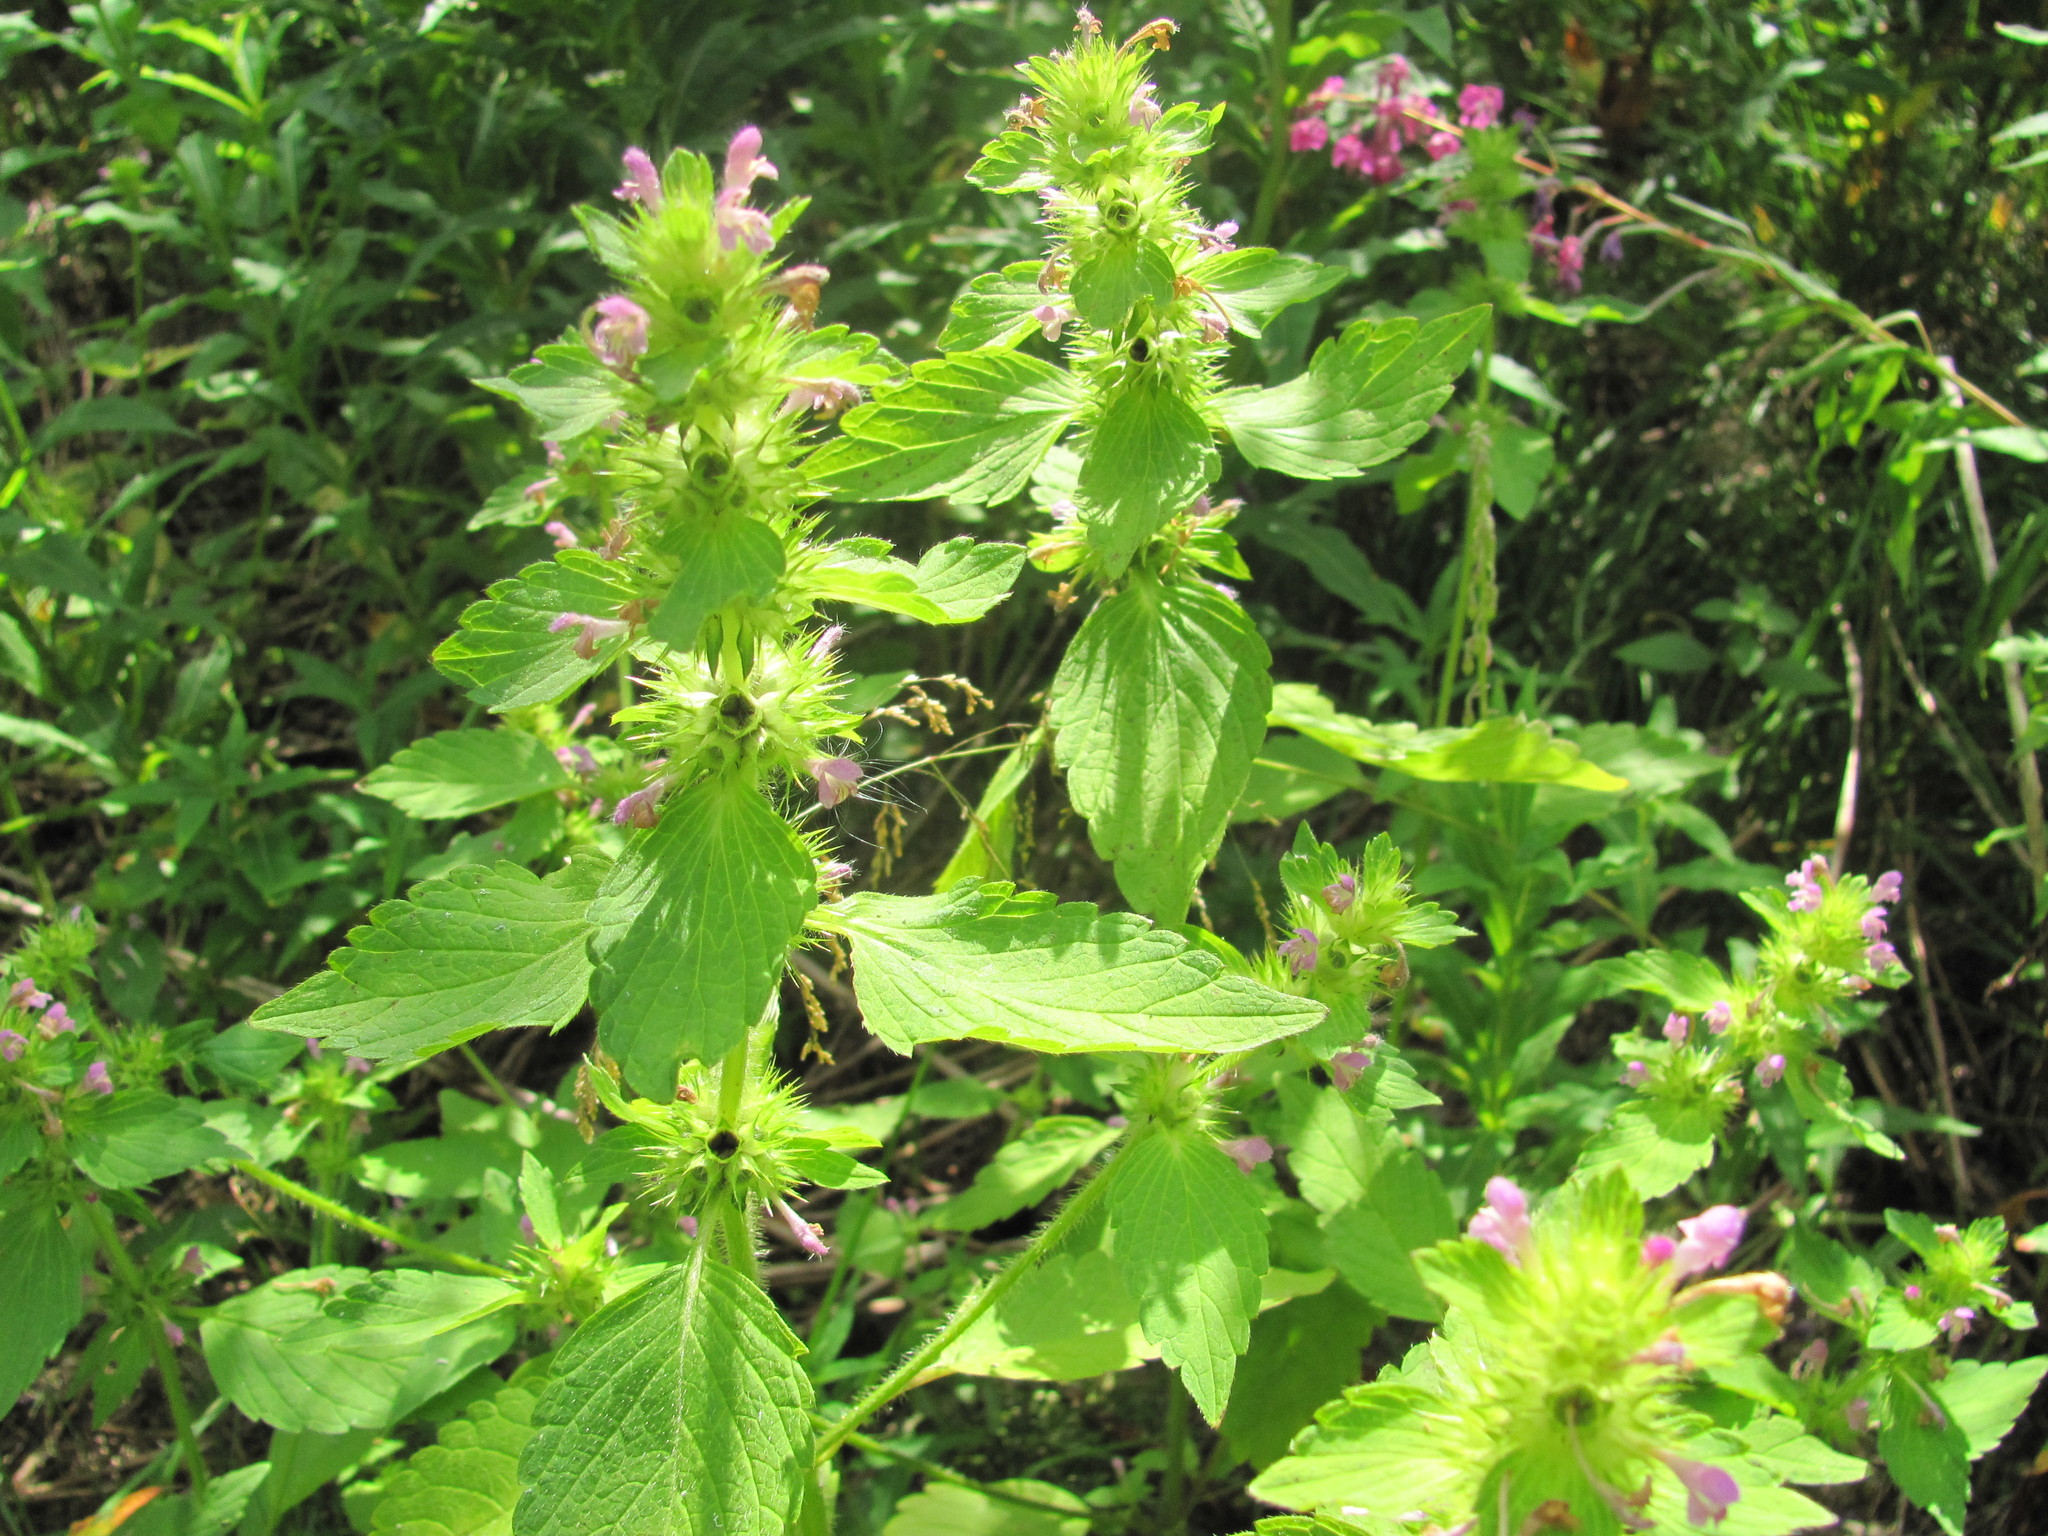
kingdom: Plantae
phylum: Tracheophyta
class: Magnoliopsida
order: Lamiales
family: Lamiaceae
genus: Galeopsis
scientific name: Galeopsis bifida
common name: Bifid hemp-nettle
